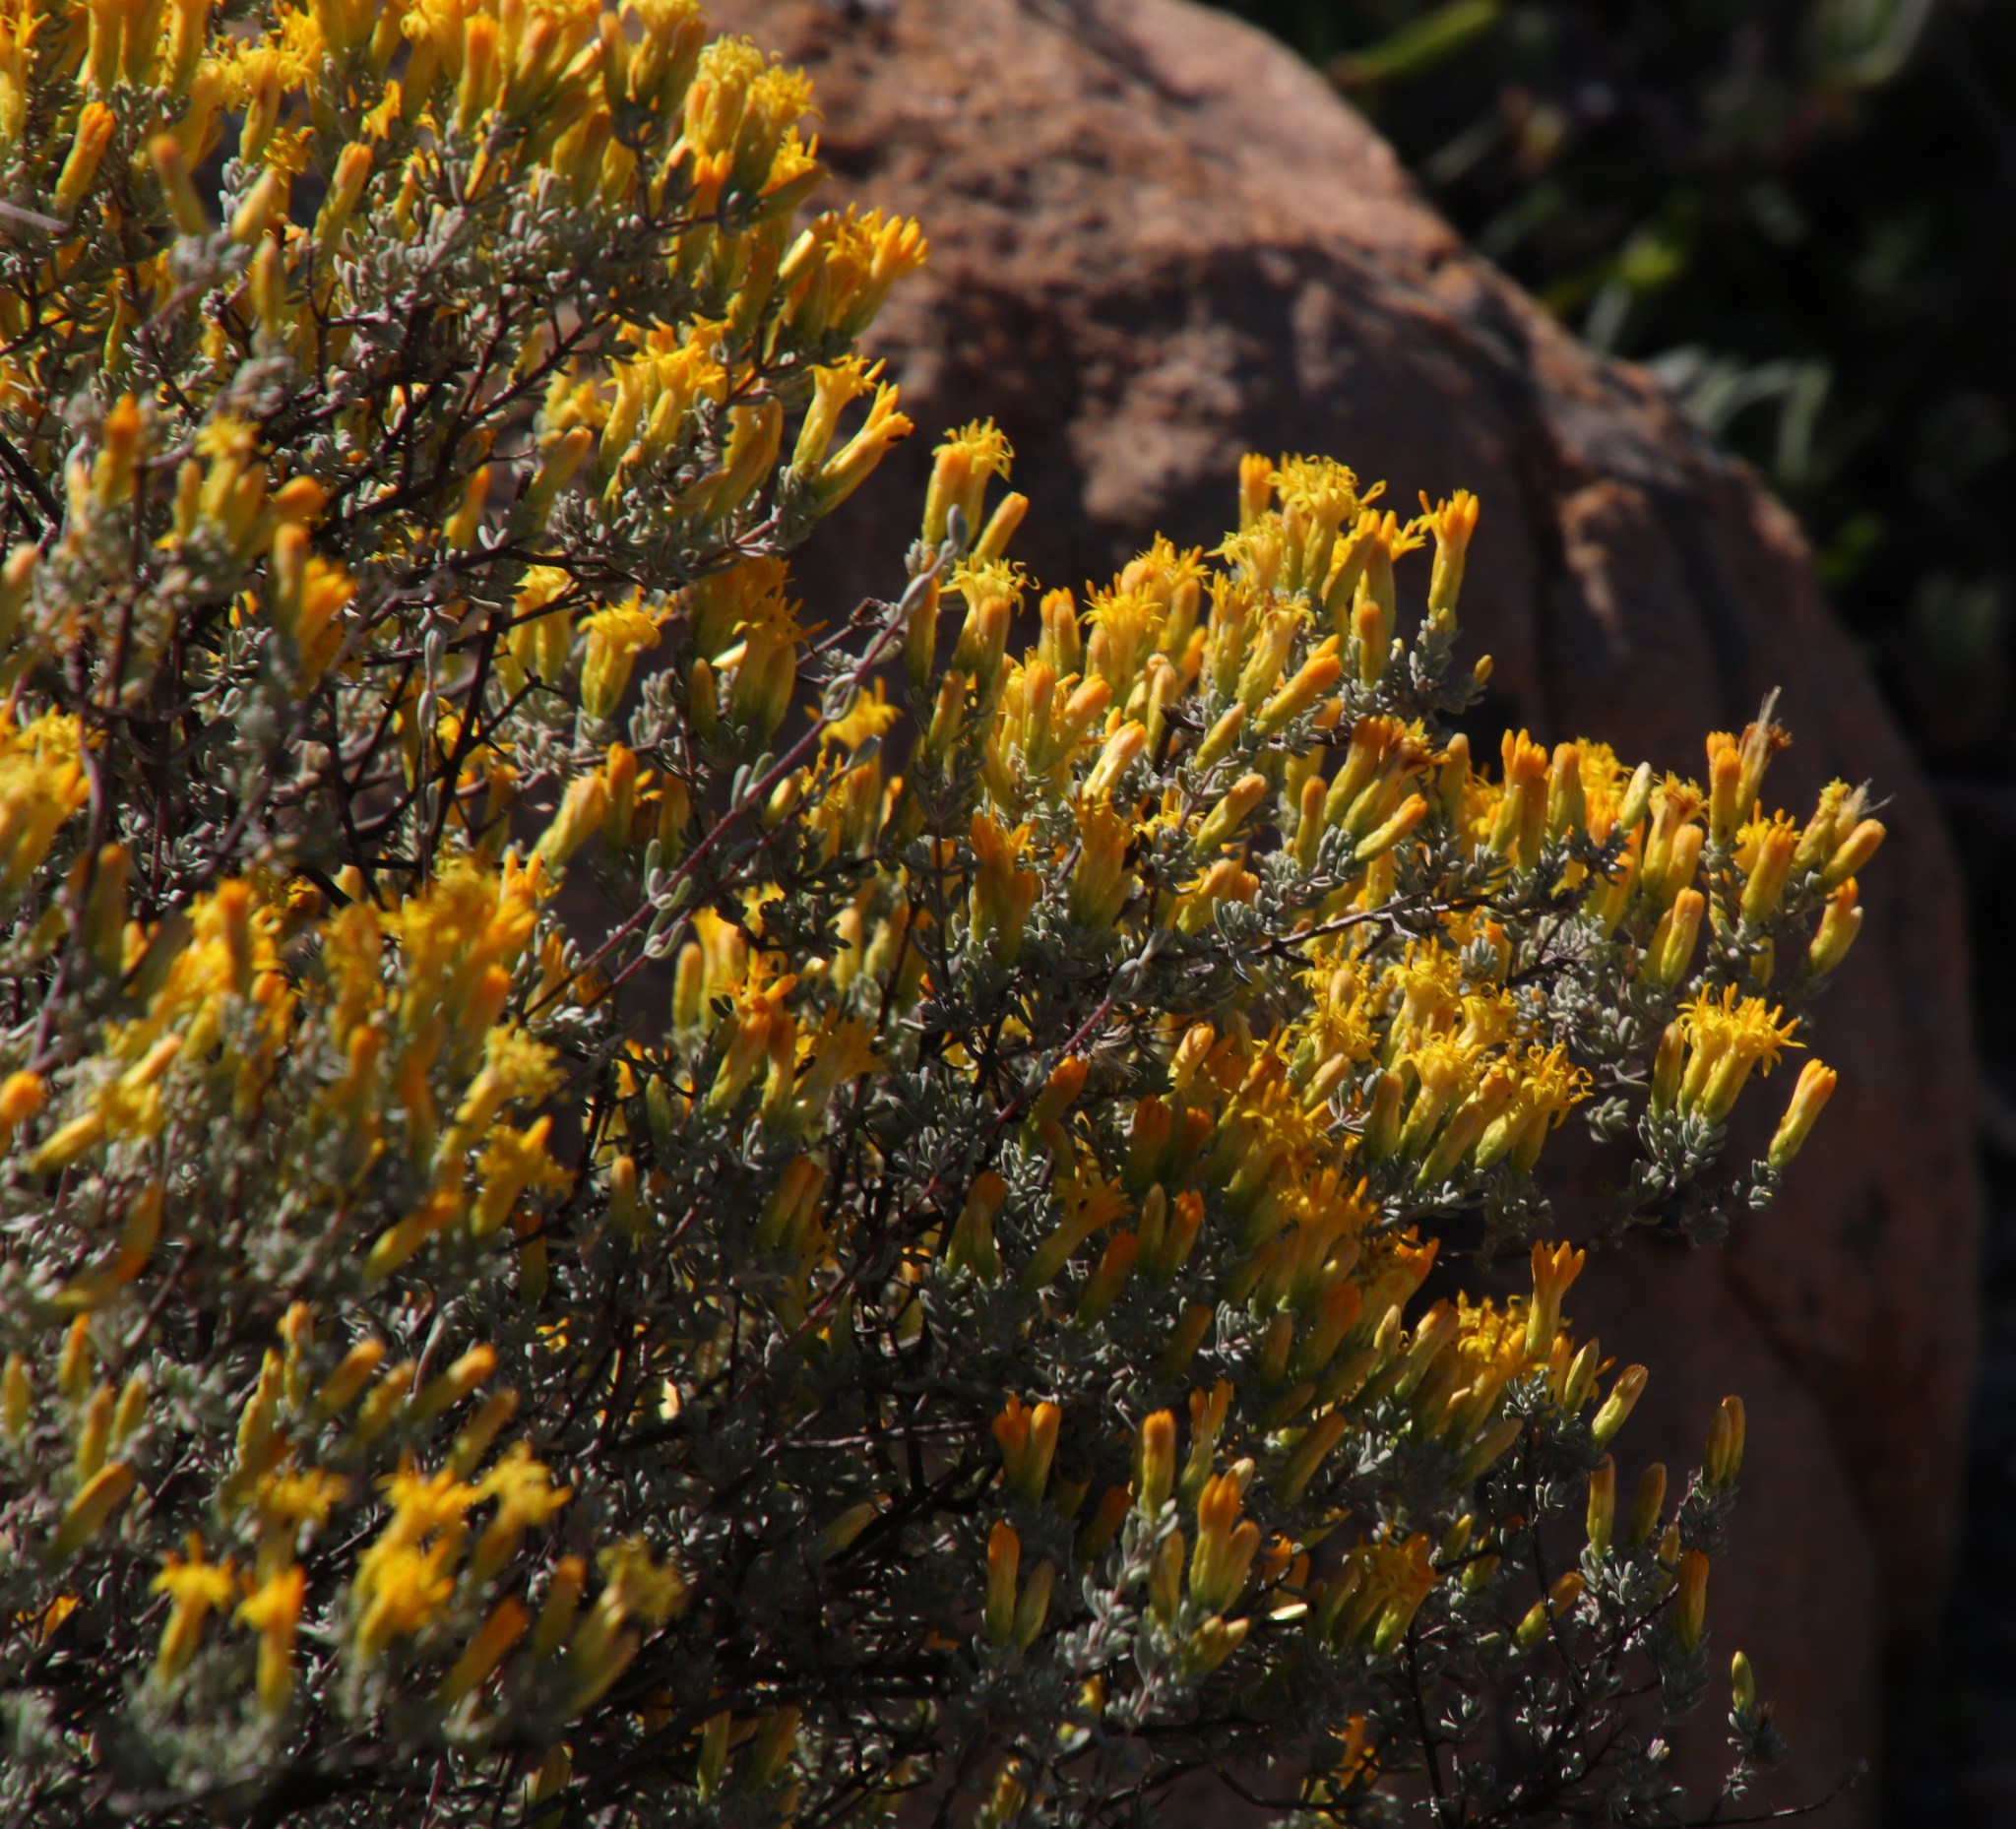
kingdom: Plantae
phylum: Tracheophyta
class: Magnoliopsida
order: Asterales
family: Asteraceae
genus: Pteronia
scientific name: Pteronia incana
